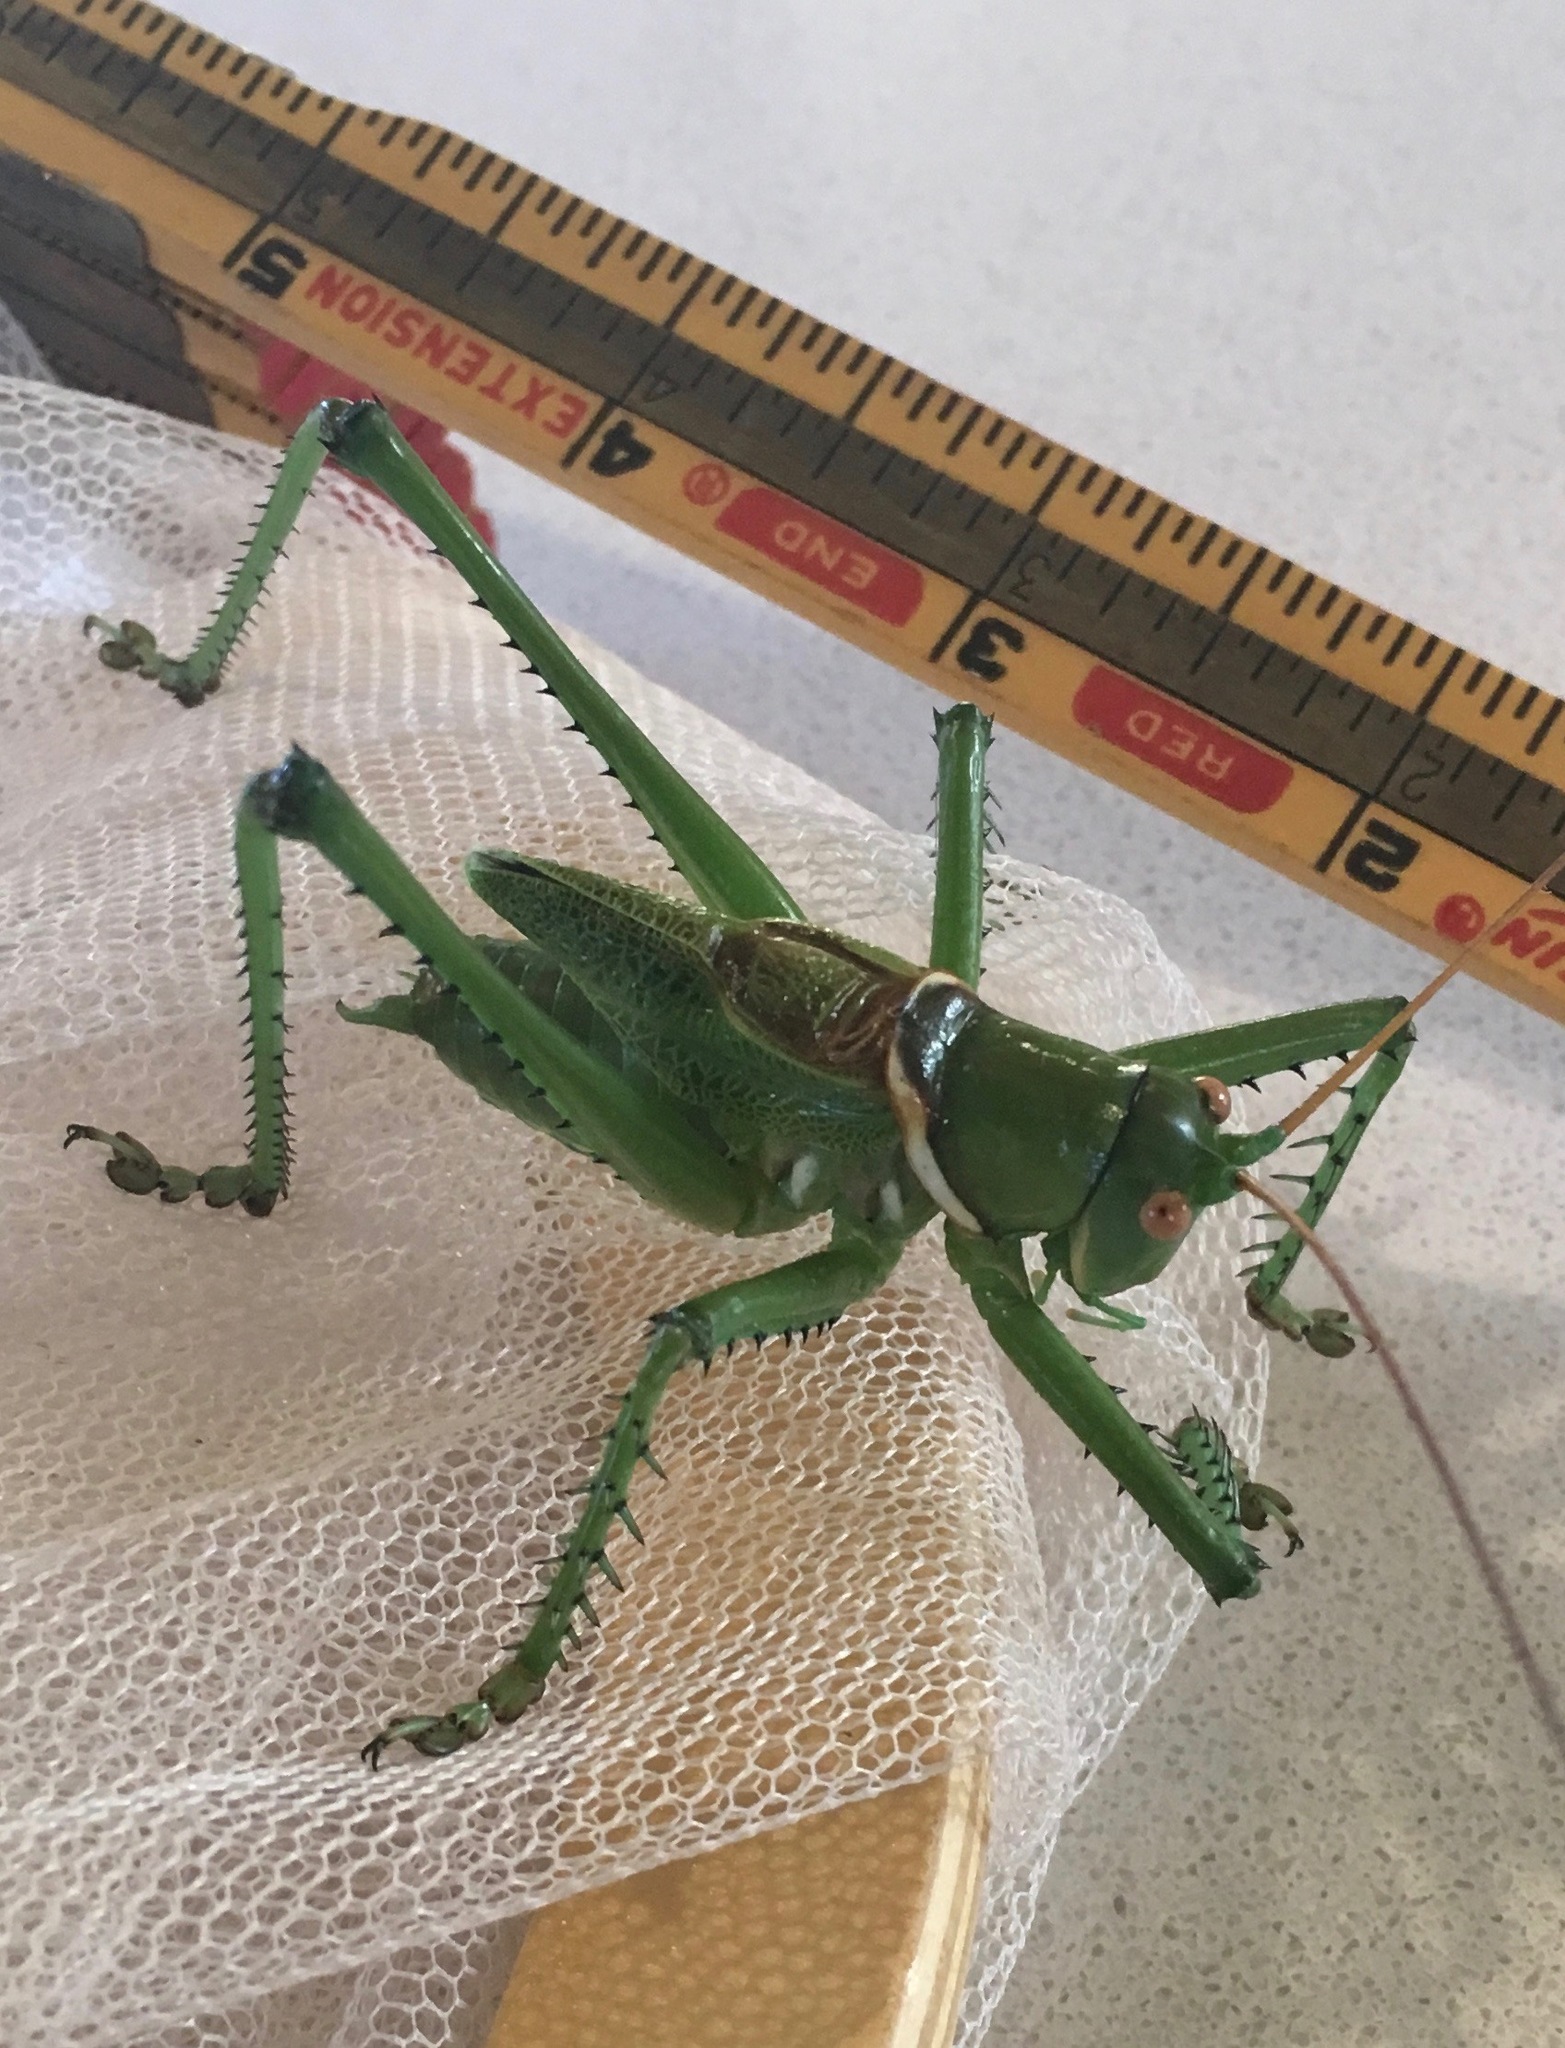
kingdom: Animalia
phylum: Arthropoda
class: Insecta
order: Orthoptera
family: Tettigoniidae
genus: Neobarrettia
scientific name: Neobarrettia spinosa
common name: Greater arid-land katydid
